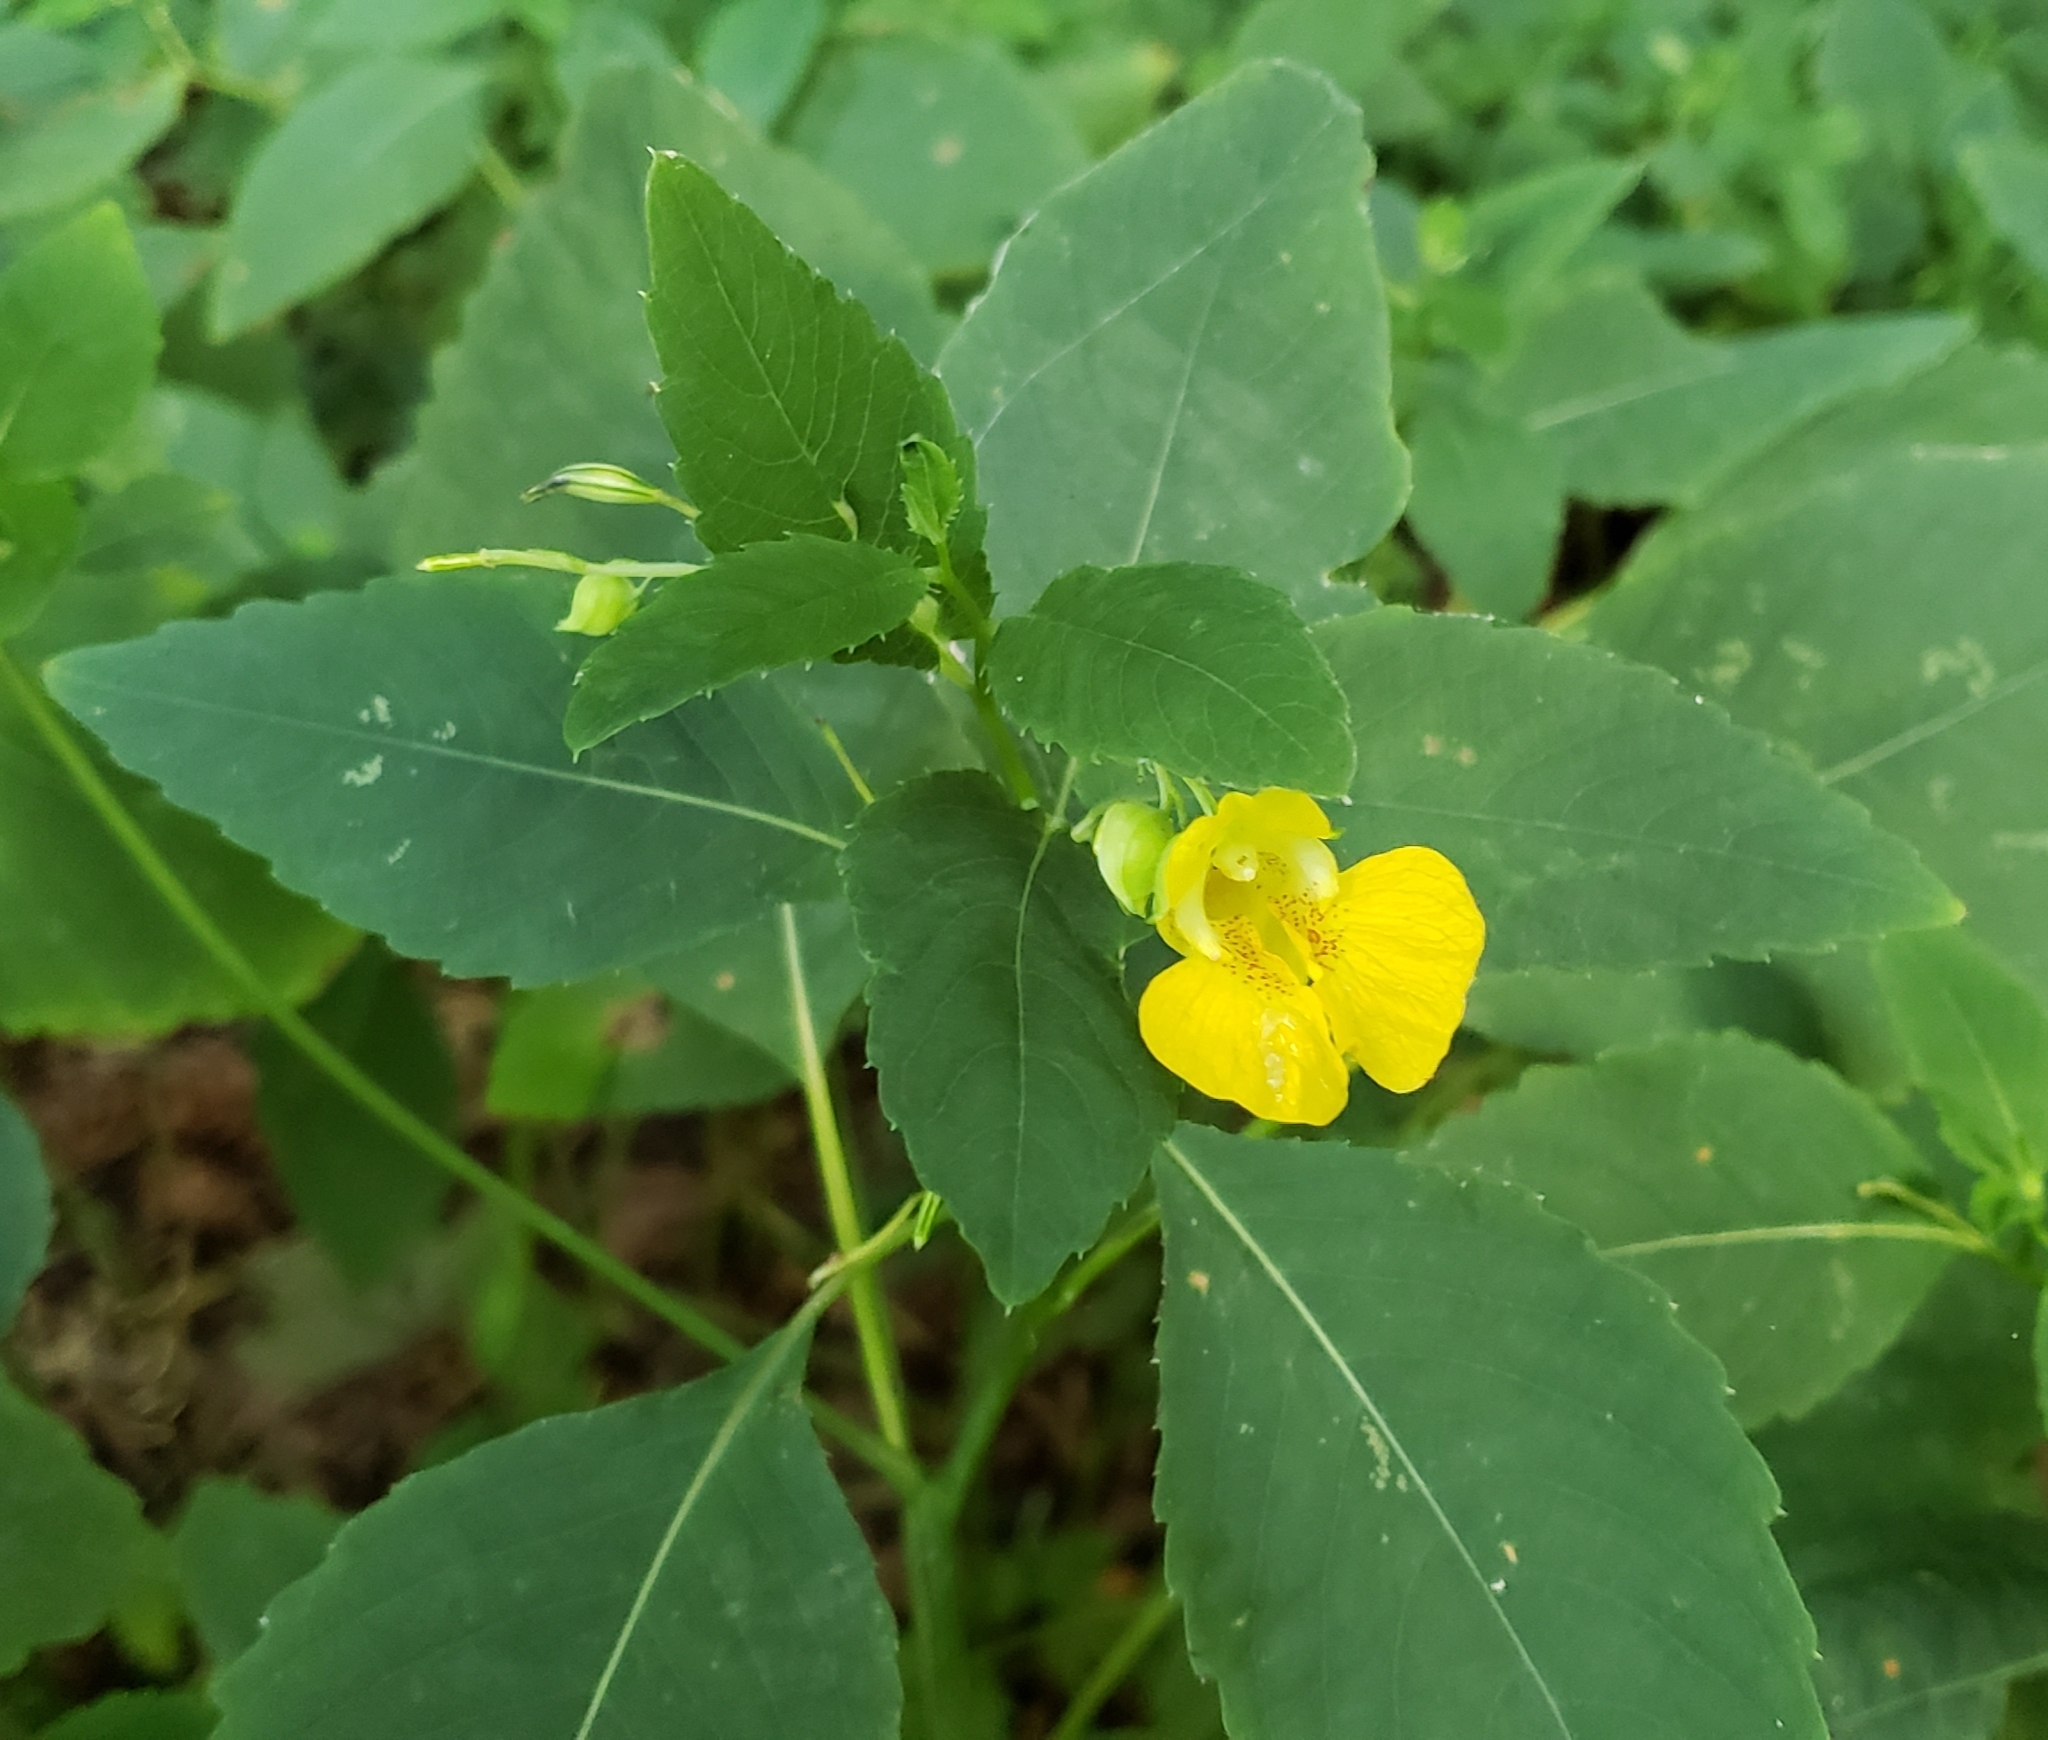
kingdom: Plantae
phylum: Tracheophyta
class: Magnoliopsida
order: Ericales
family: Balsaminaceae
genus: Impatiens
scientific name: Impatiens pallida
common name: Pale snapweed
